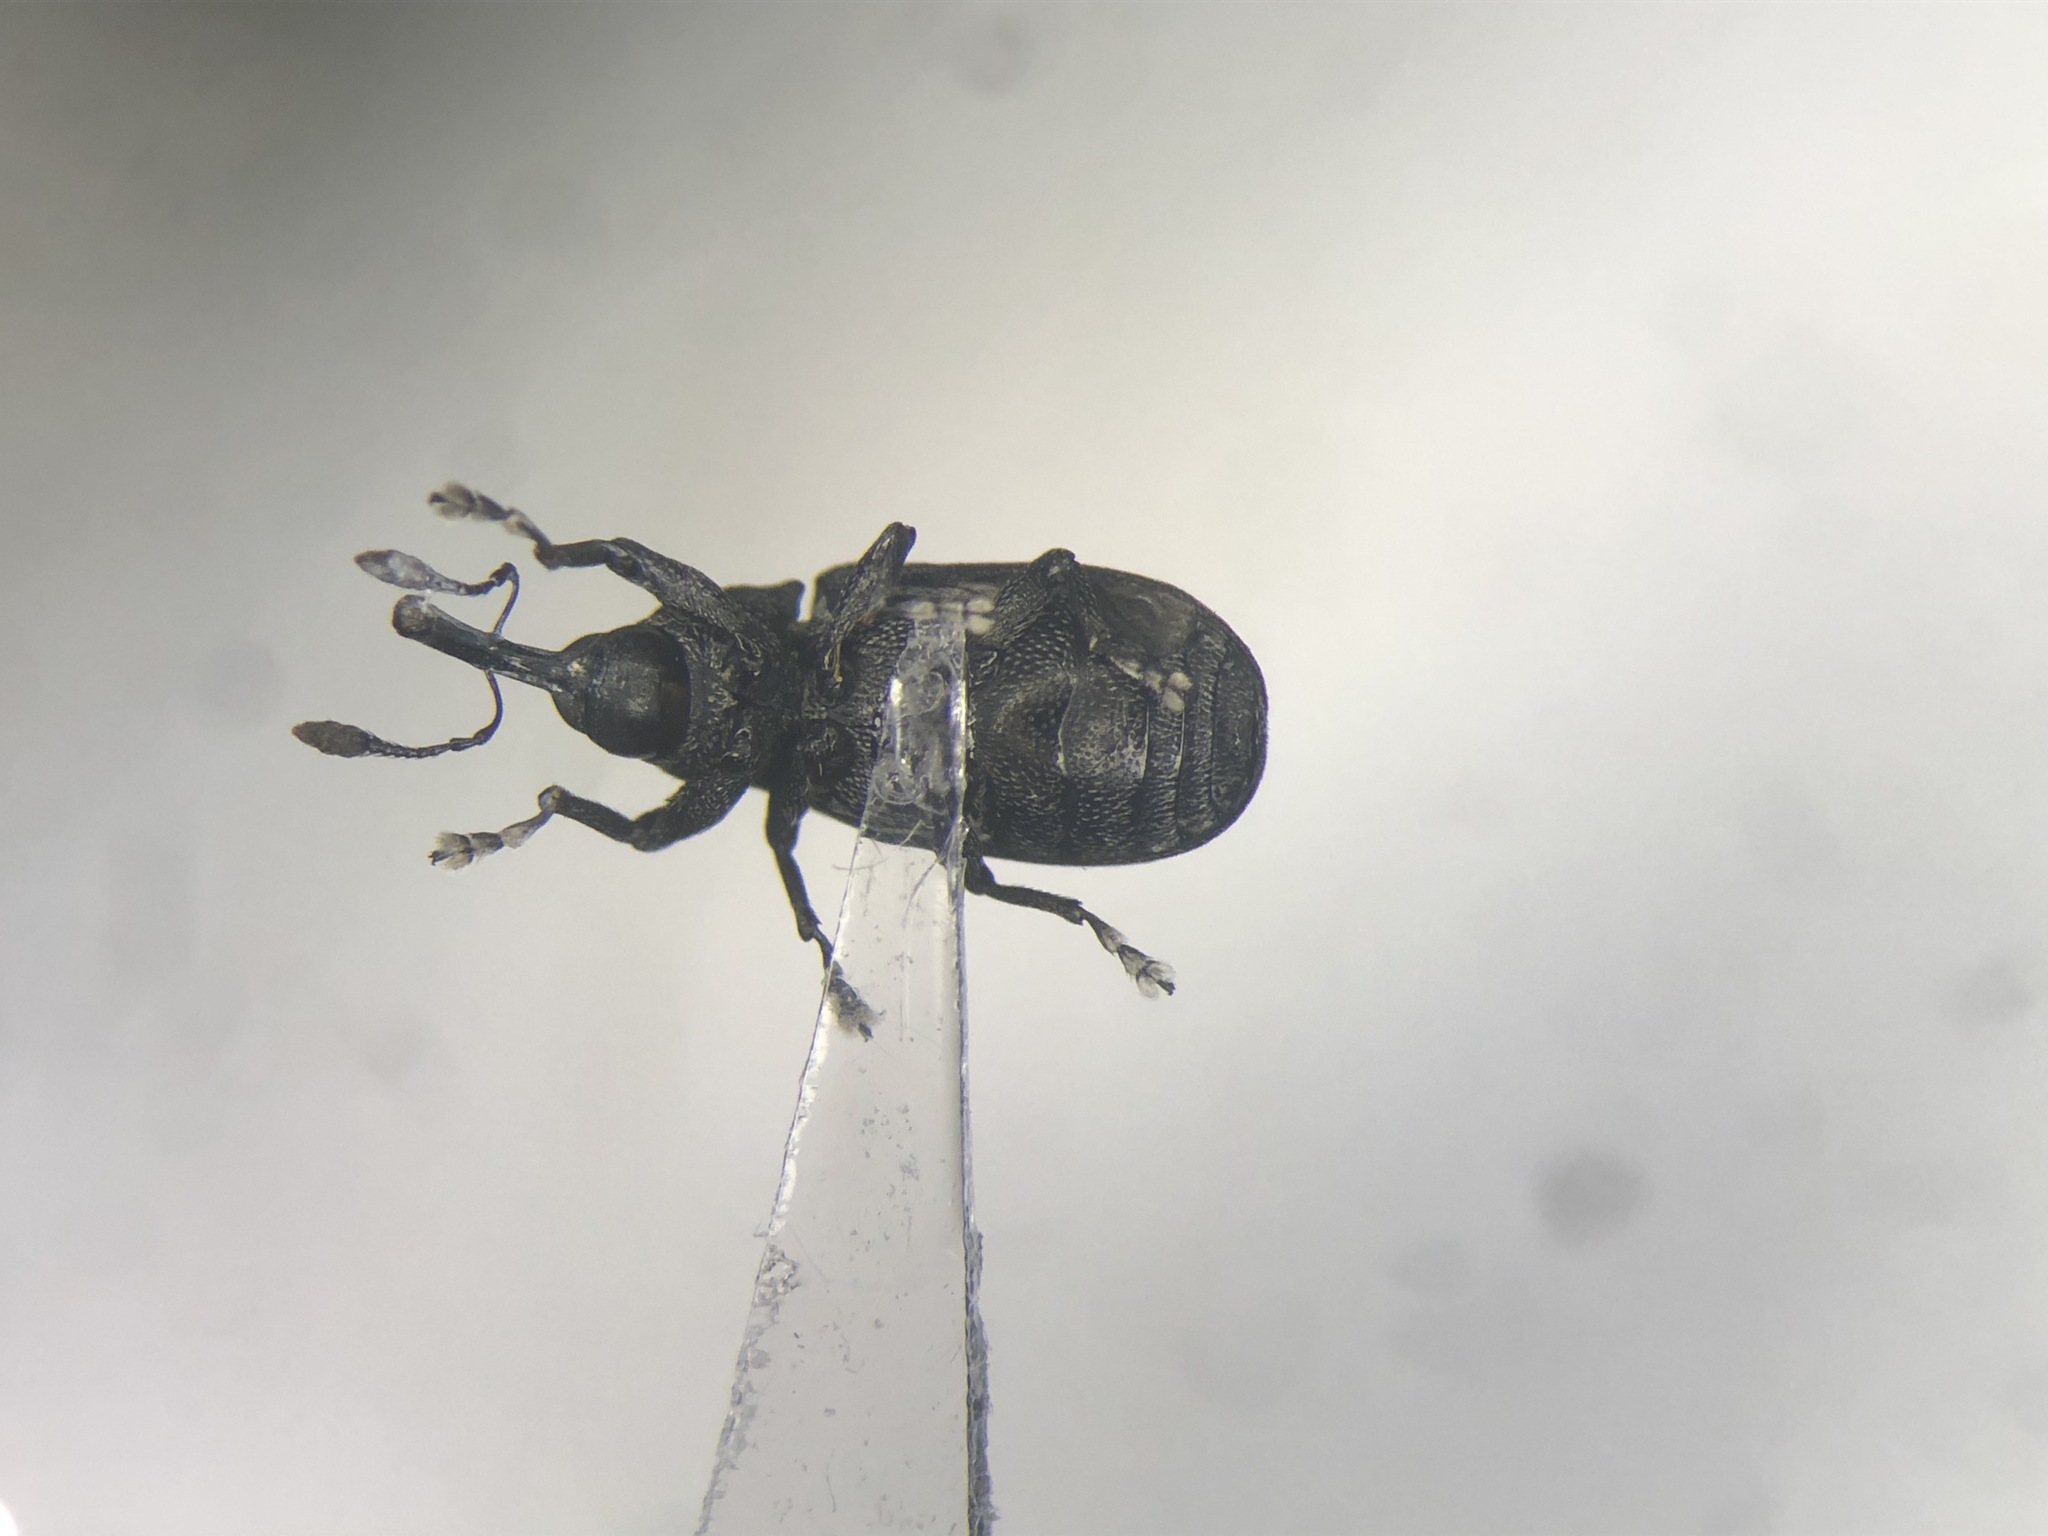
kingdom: Animalia
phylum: Arthropoda
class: Insecta
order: Coleoptera
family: Curculionidae
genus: Magdalis
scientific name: Magdalis austera
